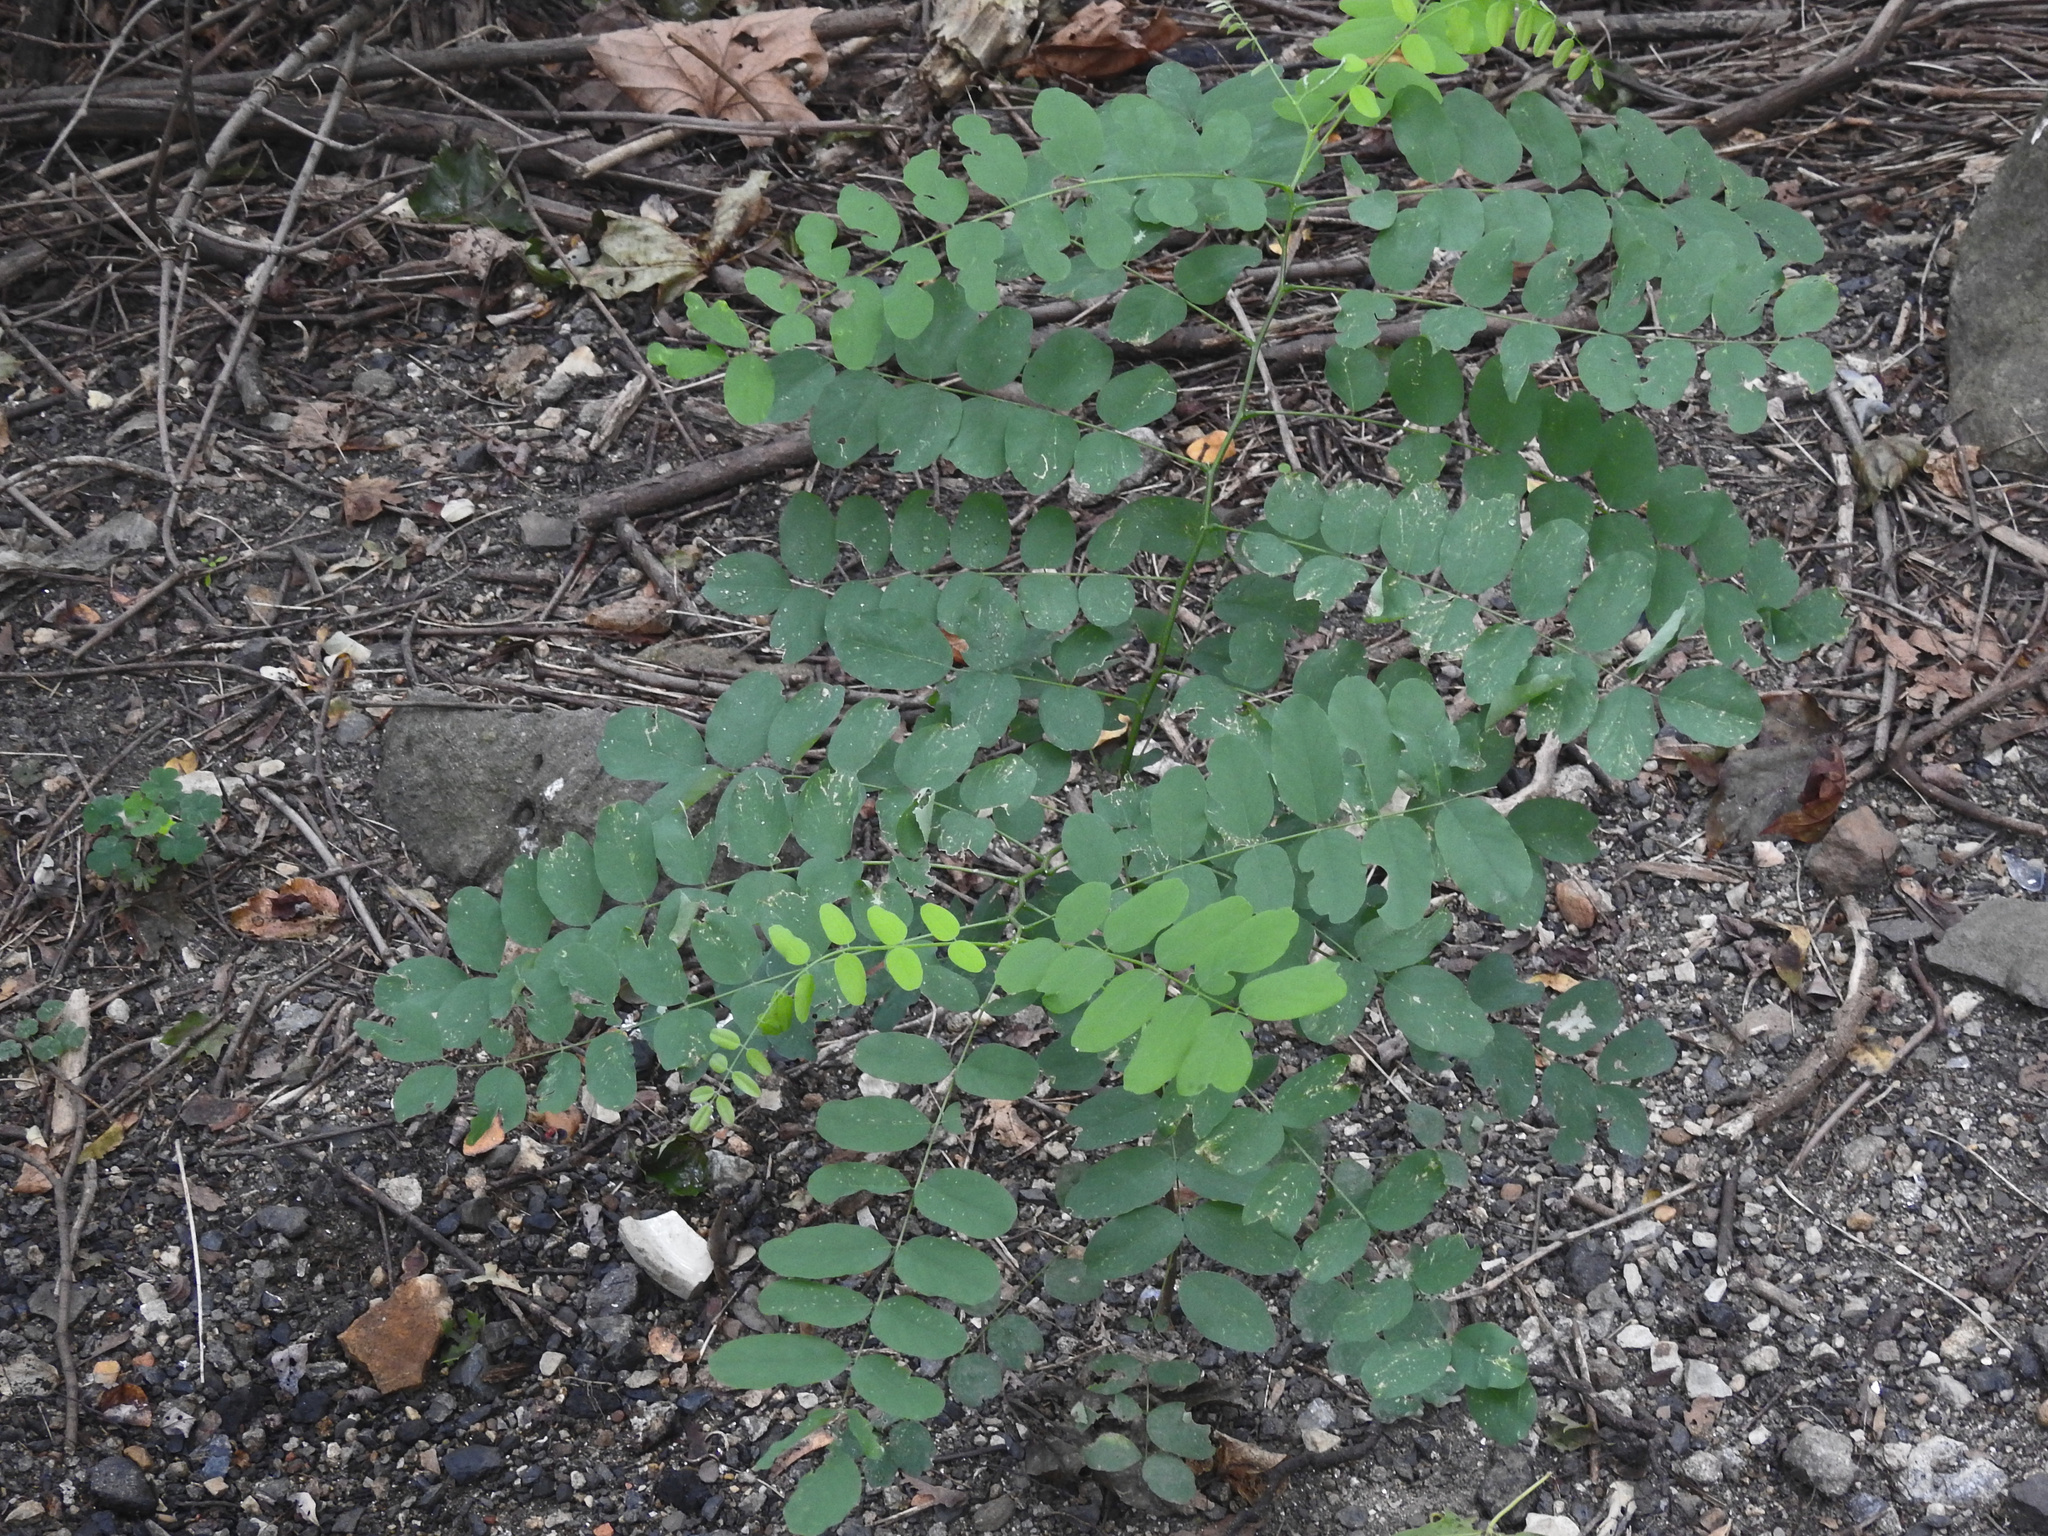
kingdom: Plantae
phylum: Tracheophyta
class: Magnoliopsida
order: Fabales
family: Fabaceae
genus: Robinia
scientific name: Robinia pseudoacacia
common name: Black locust
